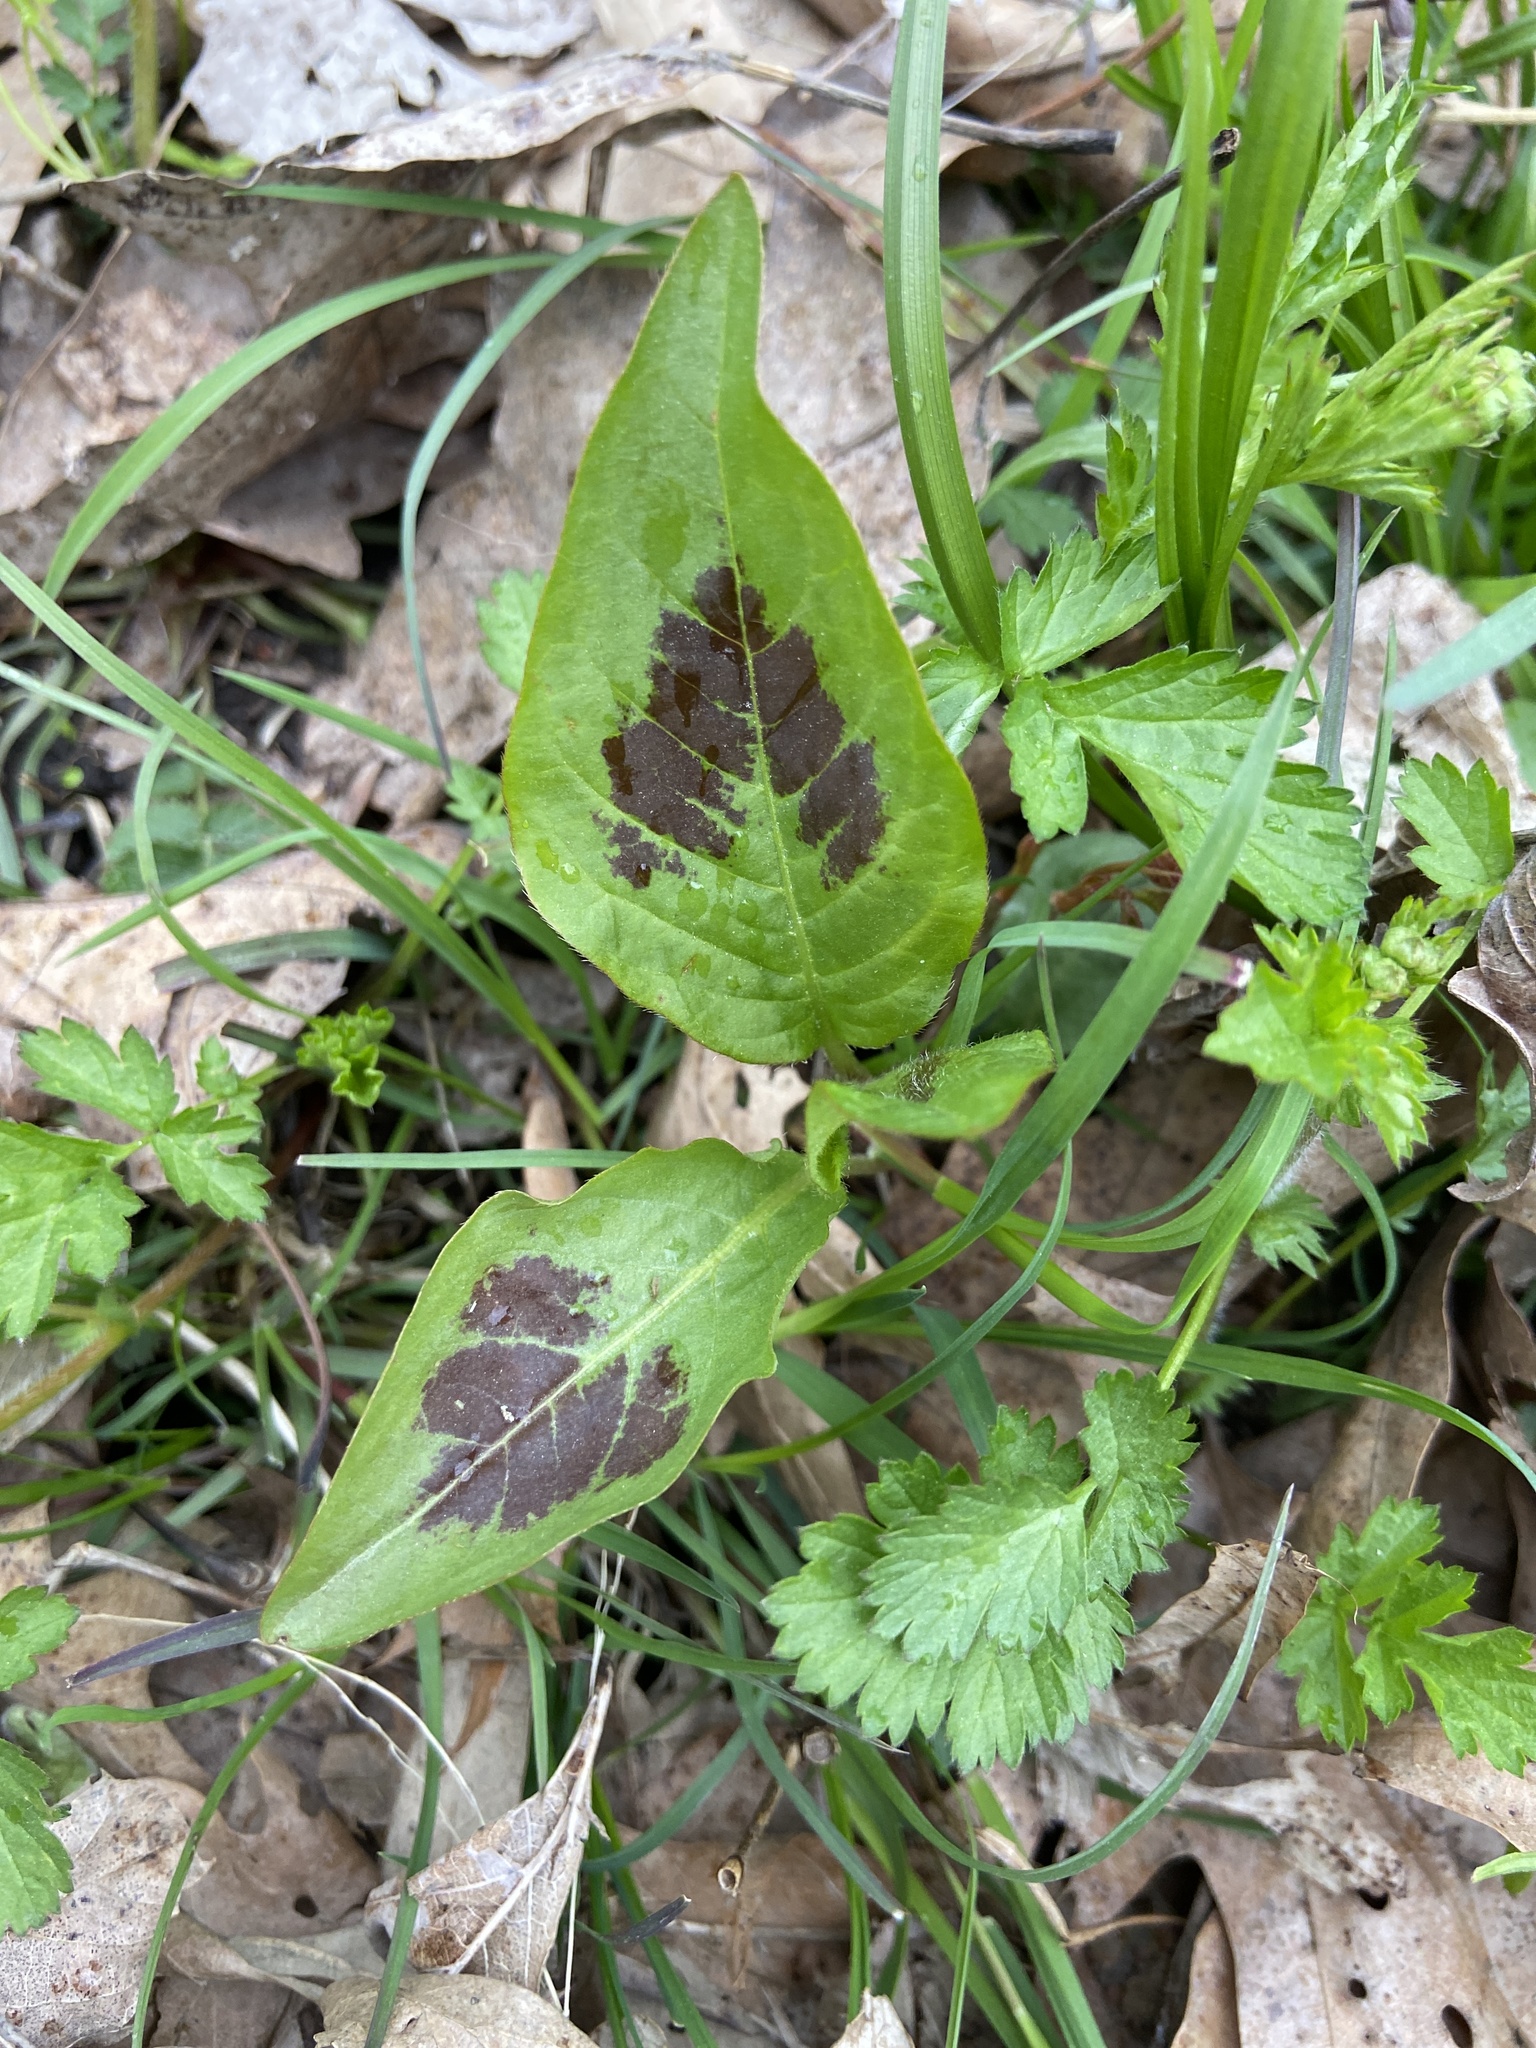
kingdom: Plantae
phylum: Tracheophyta
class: Magnoliopsida
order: Caryophyllales
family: Polygonaceae
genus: Persicaria
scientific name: Persicaria virginiana
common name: Jumpseed
